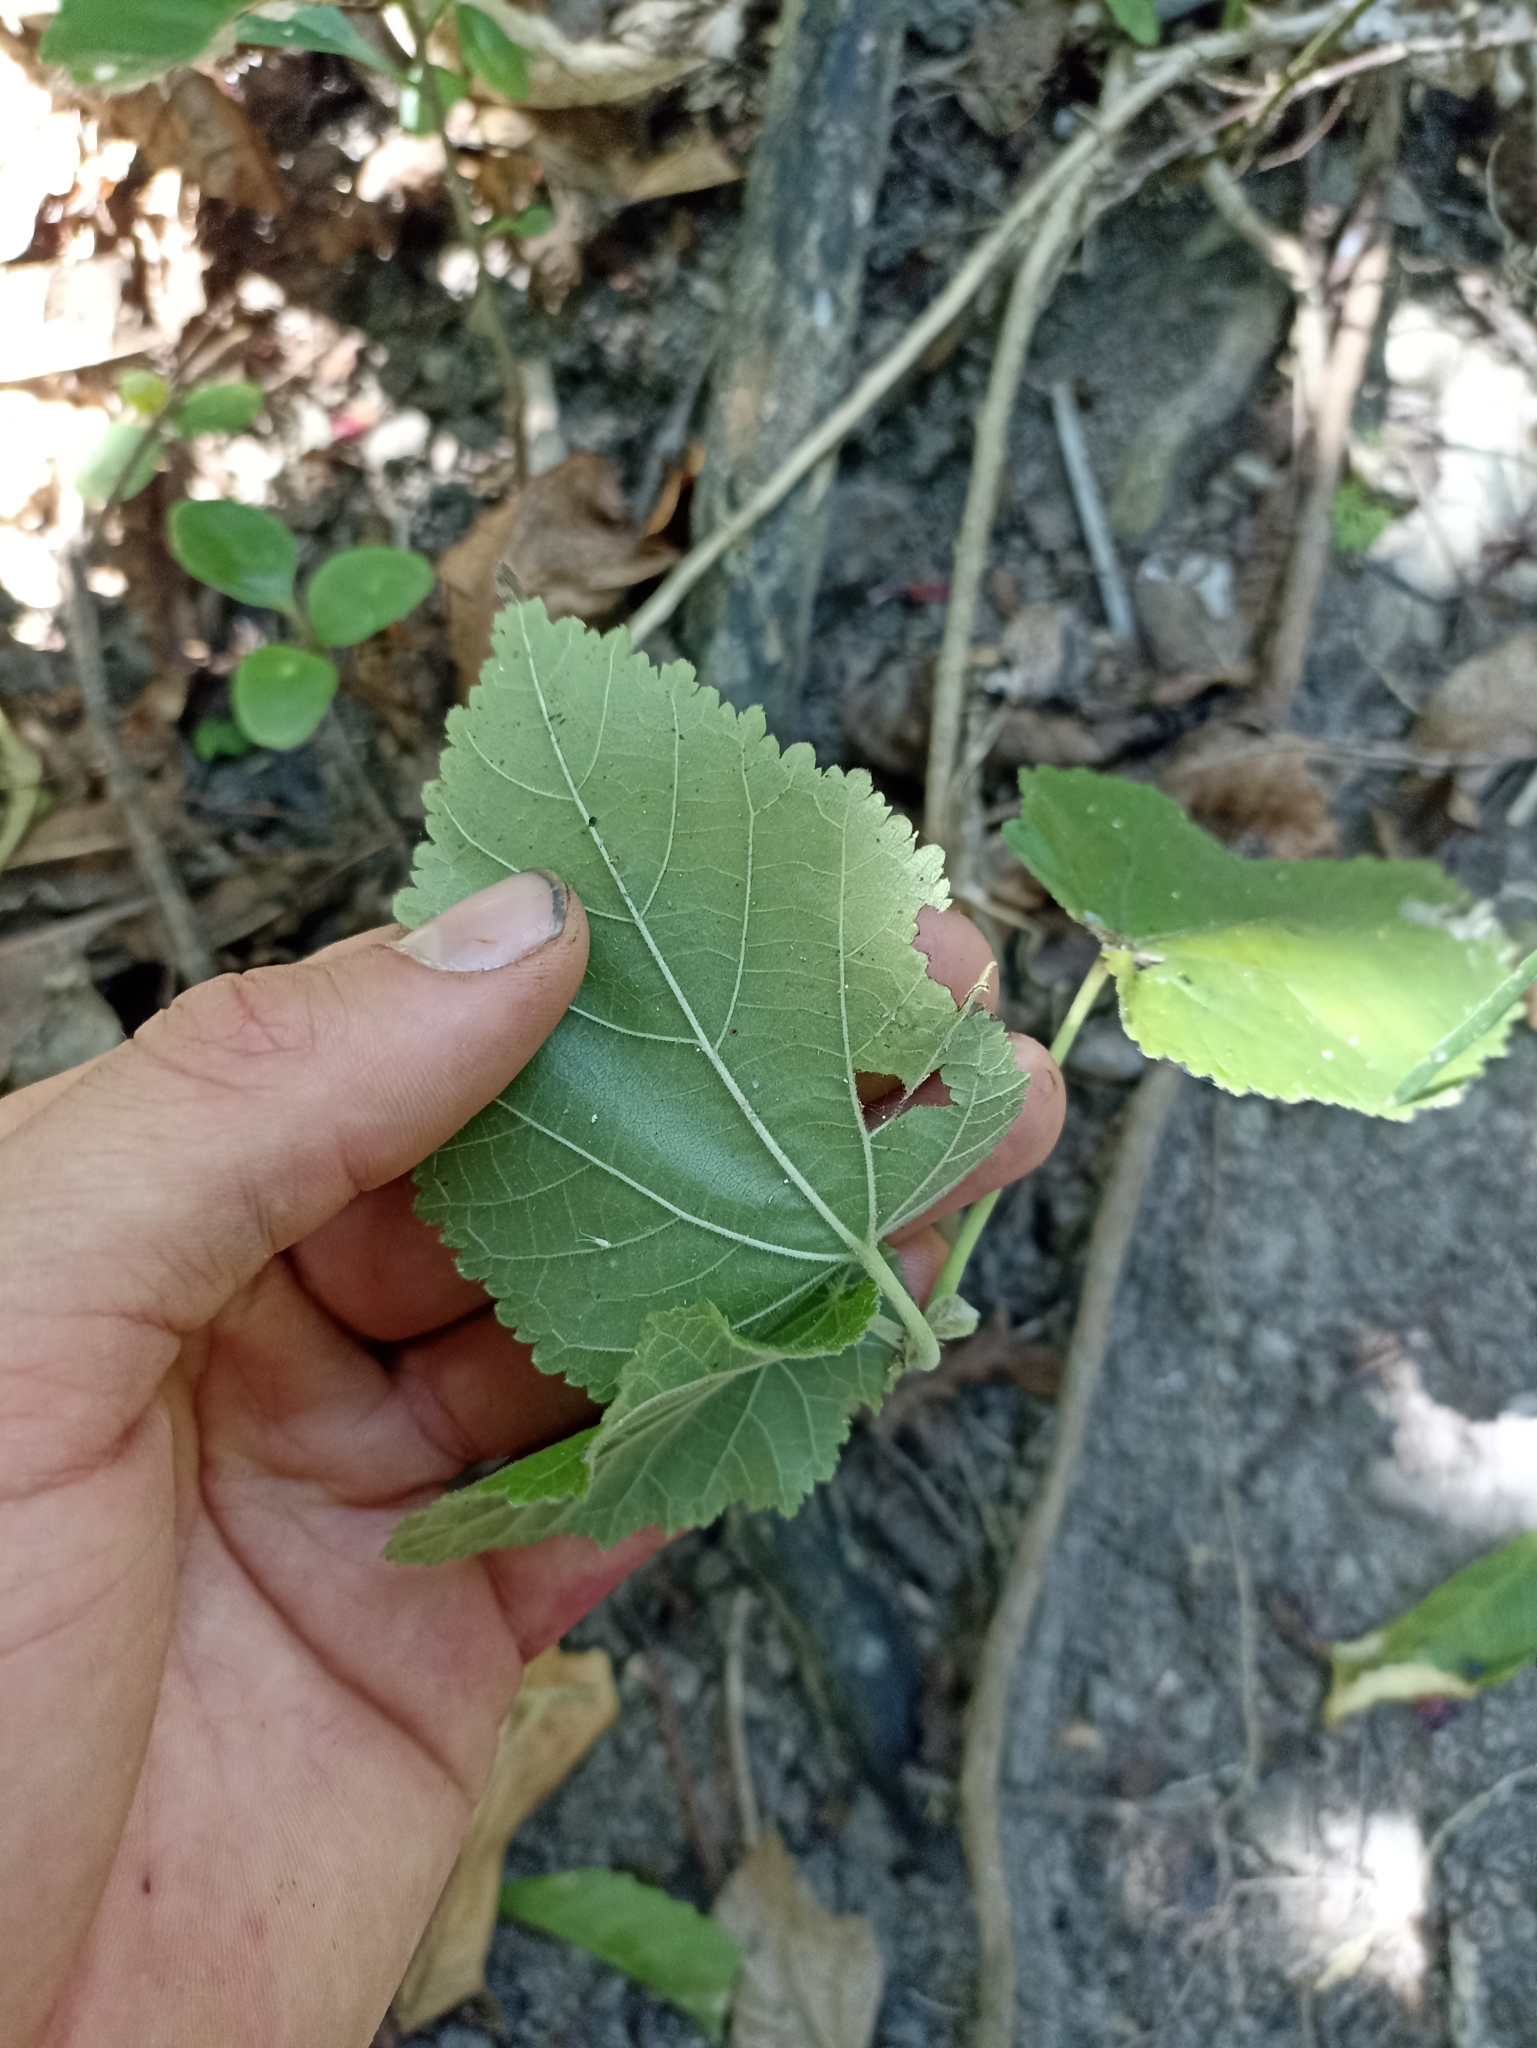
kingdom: Plantae
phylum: Tracheophyta
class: Magnoliopsida
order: Malvales
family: Malvaceae
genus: Entelea
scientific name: Entelea arborescens
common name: New zealand-mulberry
